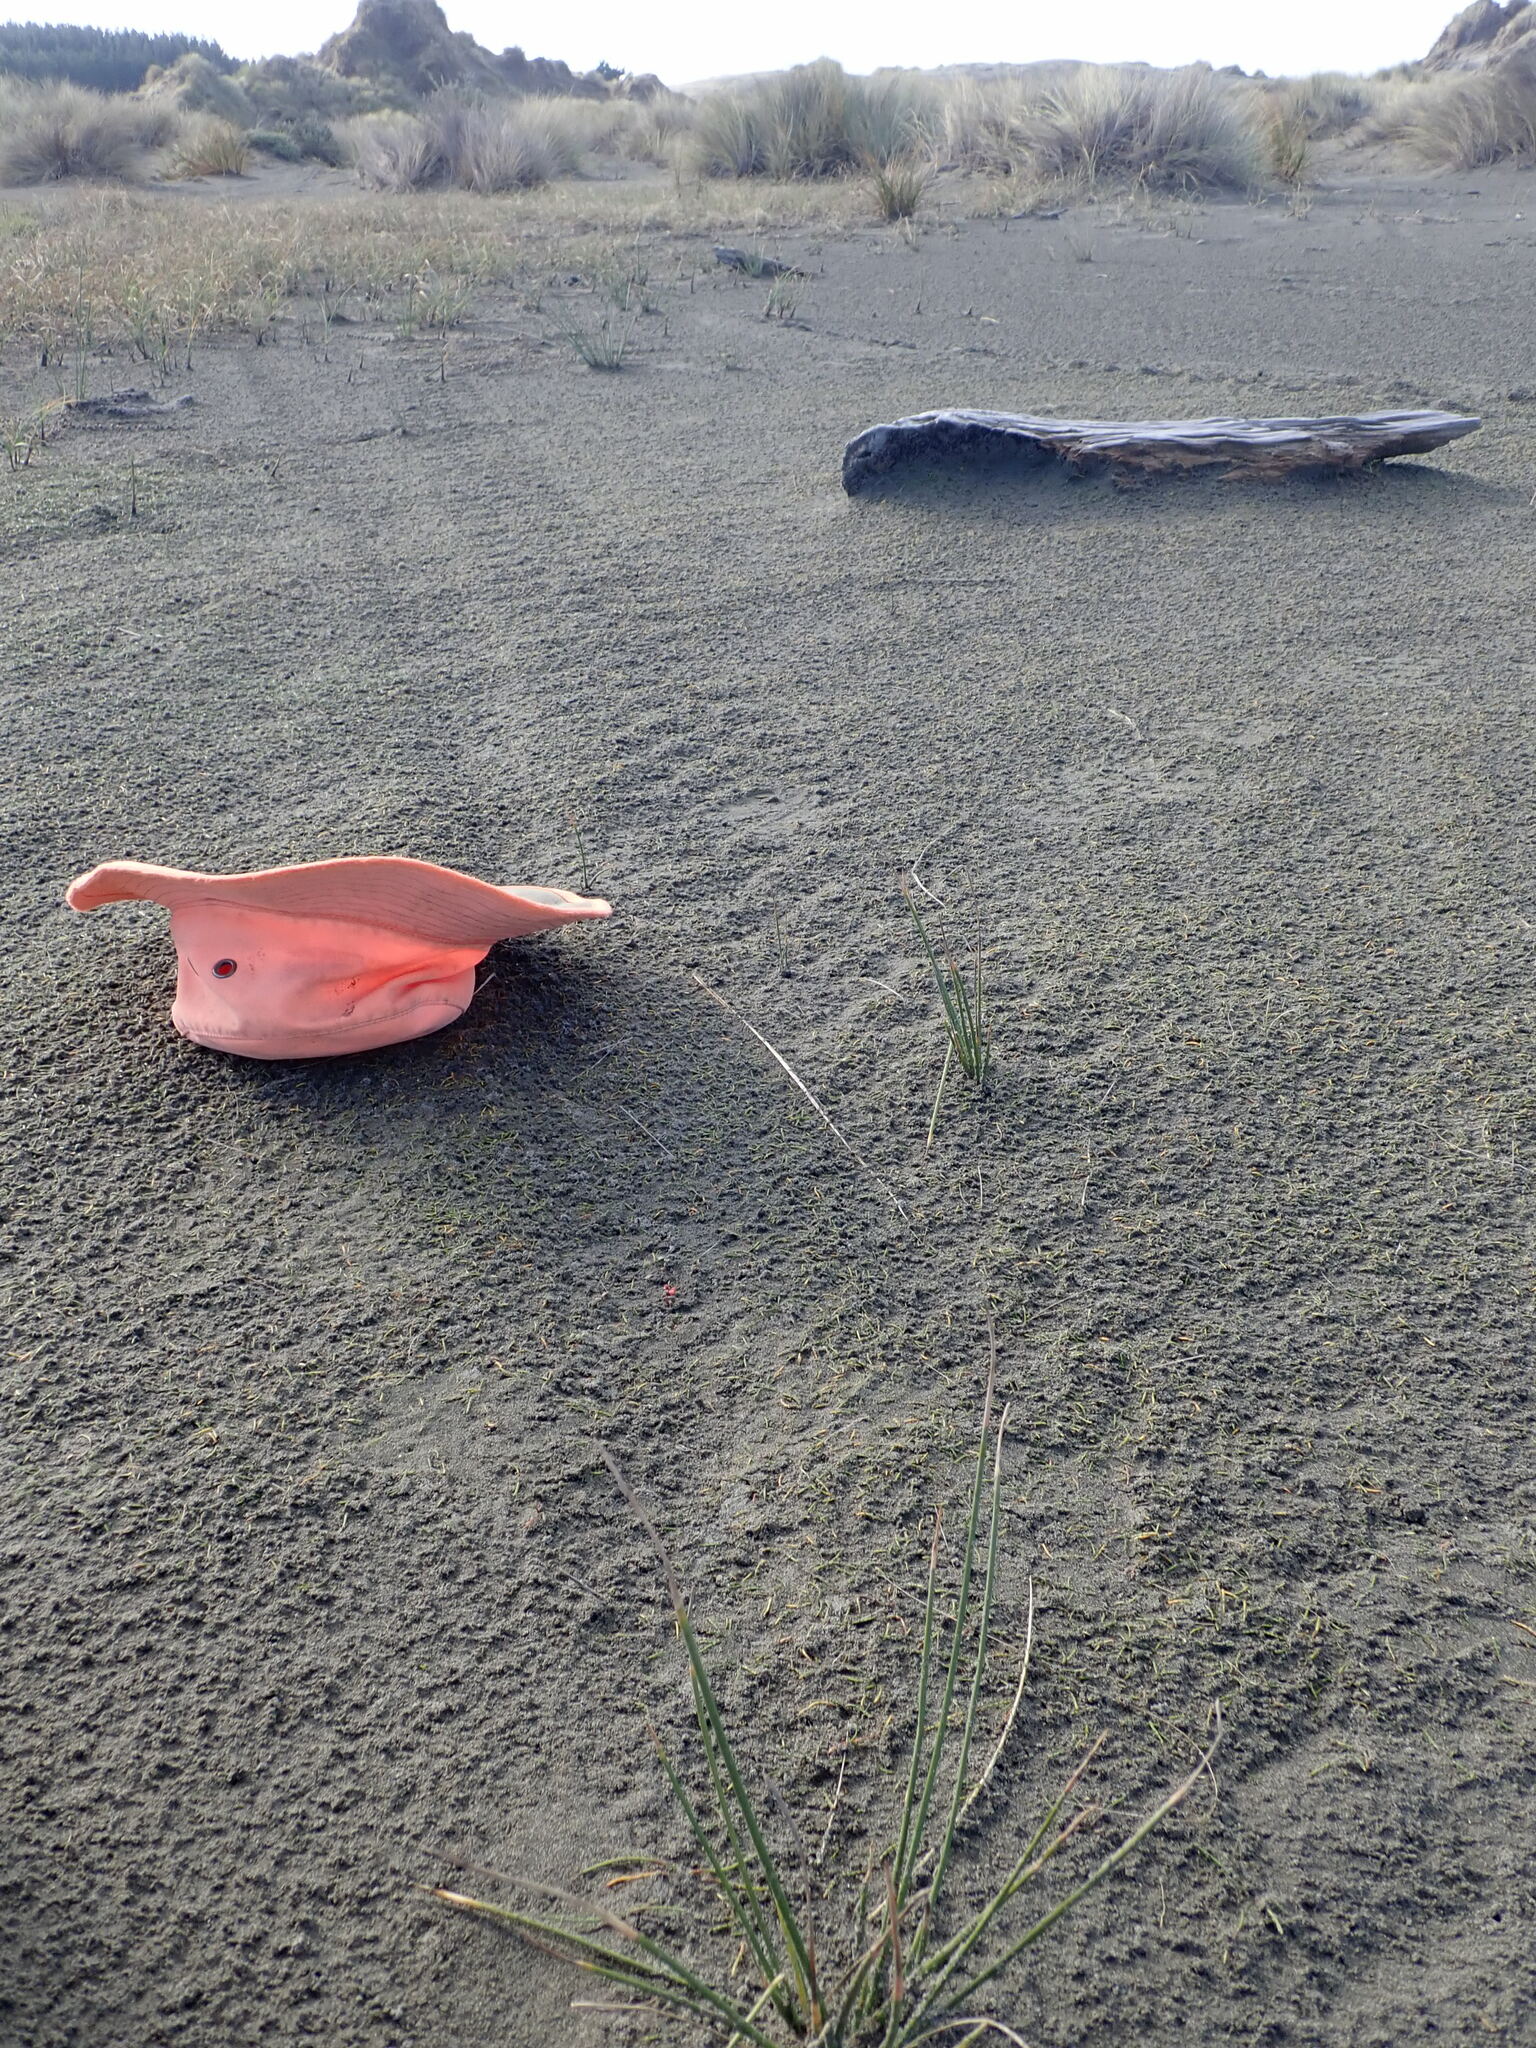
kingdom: Plantae
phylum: Tracheophyta
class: Magnoliopsida
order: Apiales
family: Apiaceae
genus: Lilaeopsis
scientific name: Lilaeopsis novae-zelandiae
